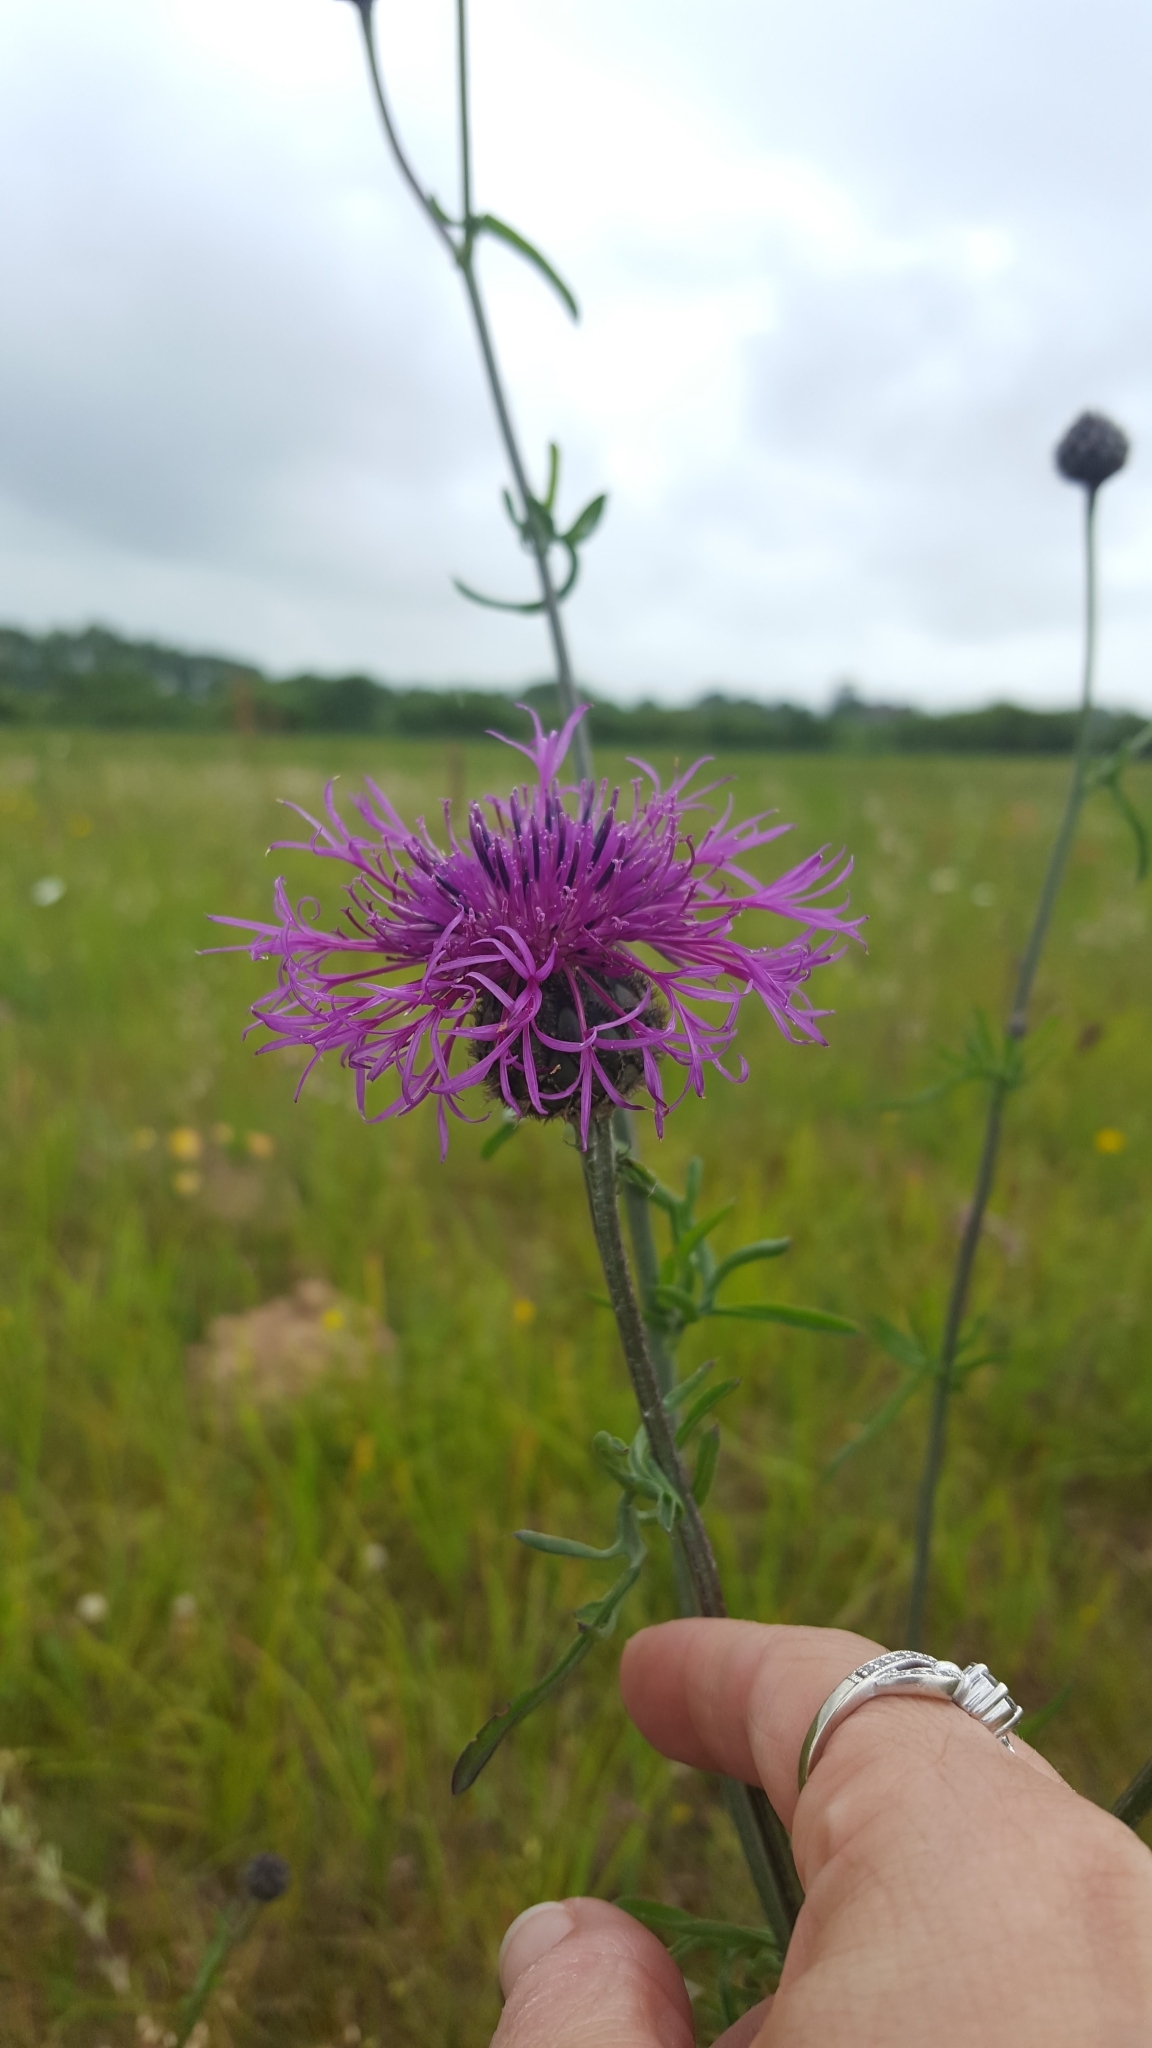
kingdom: Plantae
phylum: Tracheophyta
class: Magnoliopsida
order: Asterales
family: Asteraceae
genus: Centaurea
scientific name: Centaurea scabiosa
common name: Greater knapweed
